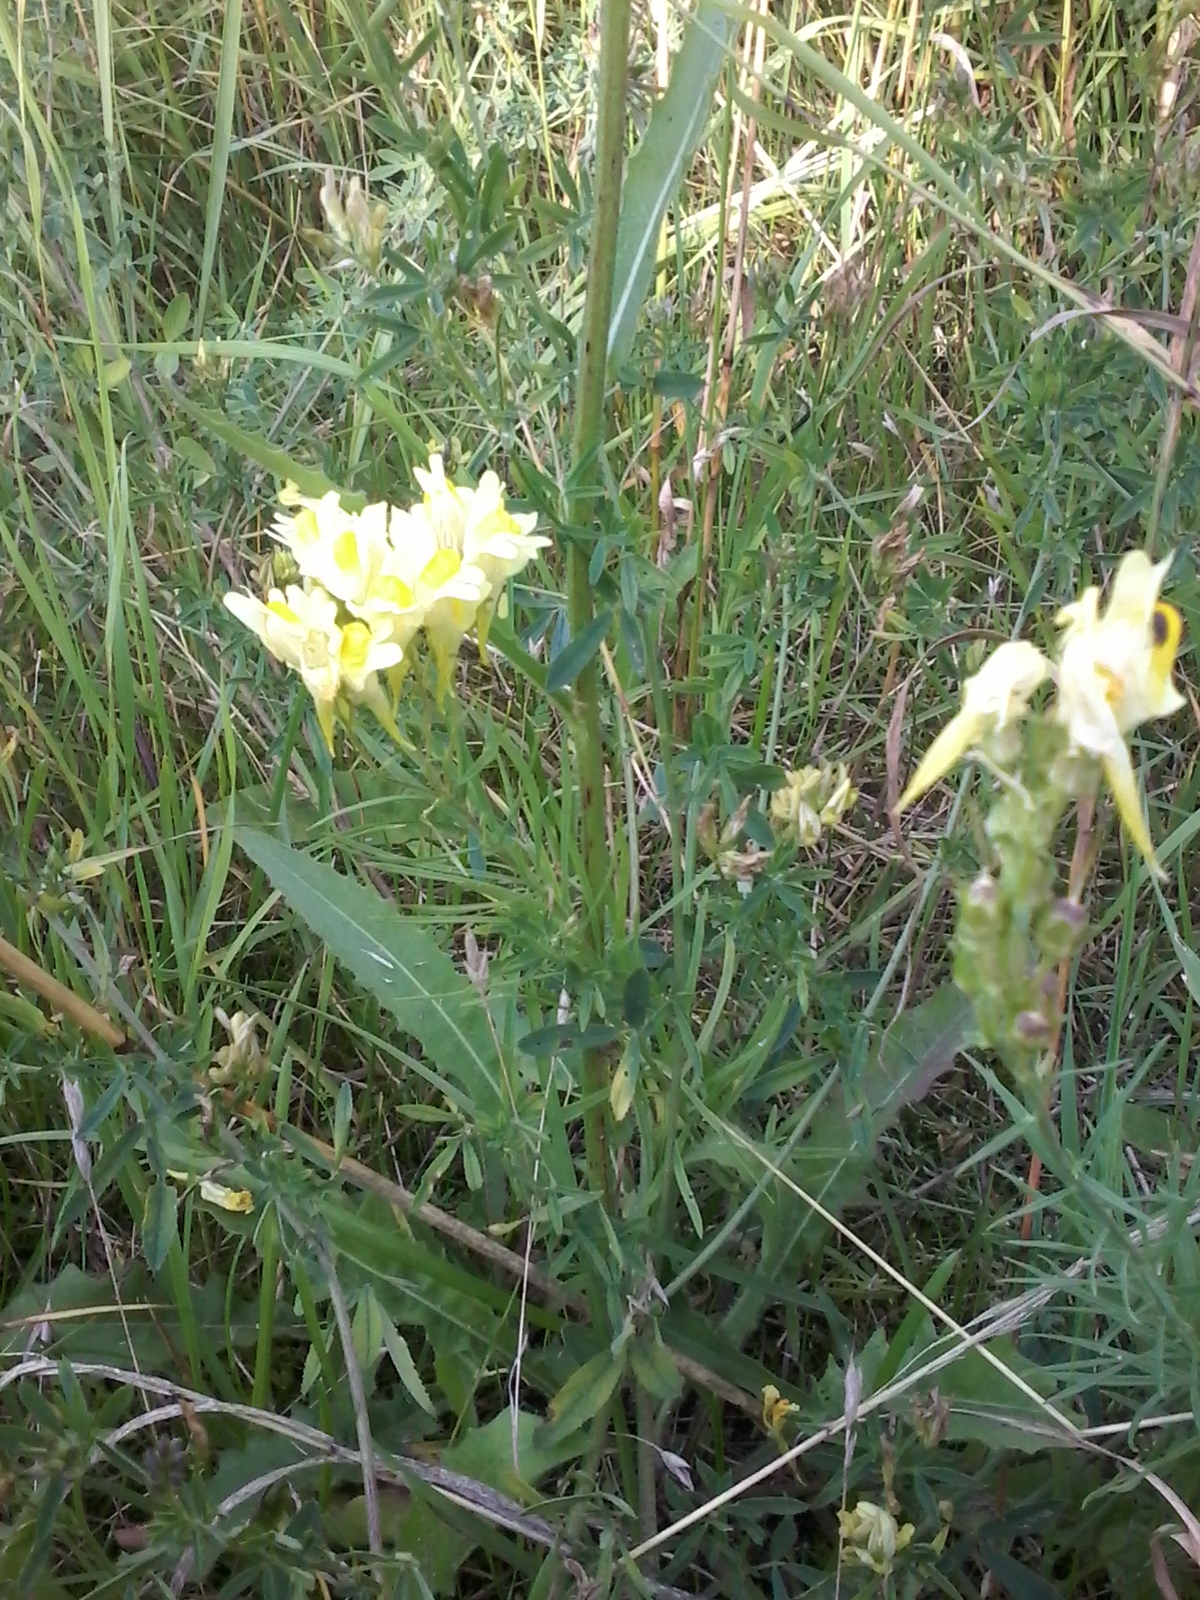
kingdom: Plantae
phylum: Tracheophyta
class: Magnoliopsida
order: Lamiales
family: Plantaginaceae
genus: Linaria
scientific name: Linaria vulgaris
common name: Butter and eggs
